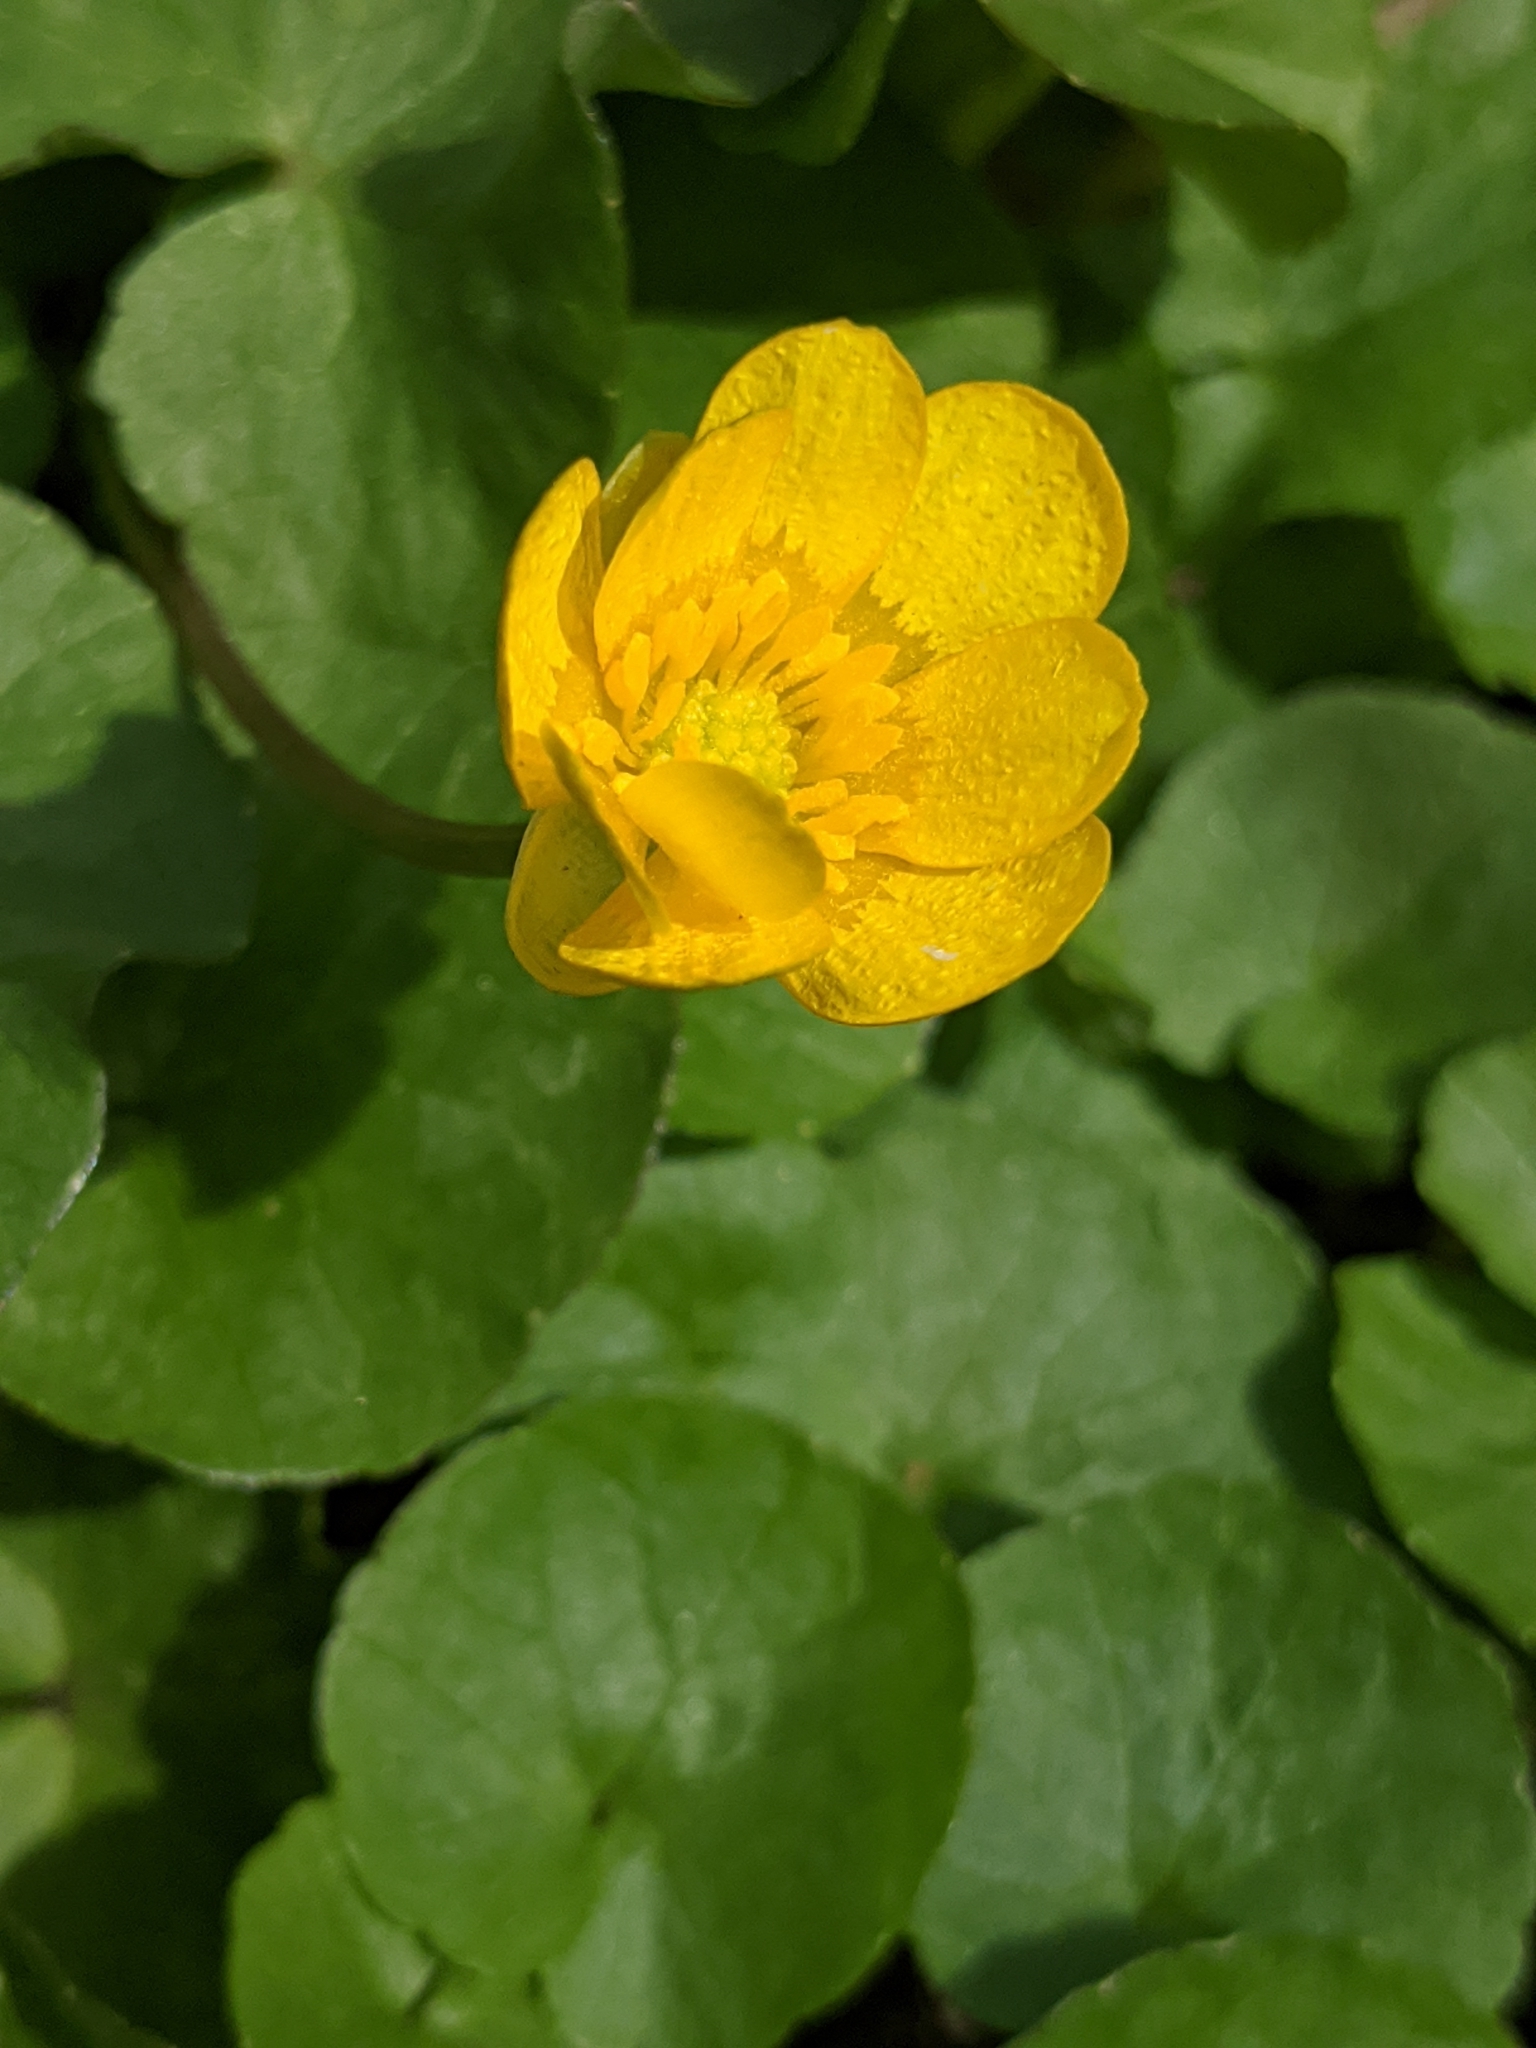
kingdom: Plantae
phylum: Tracheophyta
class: Magnoliopsida
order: Ranunculales
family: Ranunculaceae
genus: Ficaria
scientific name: Ficaria verna
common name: Lesser celandine
